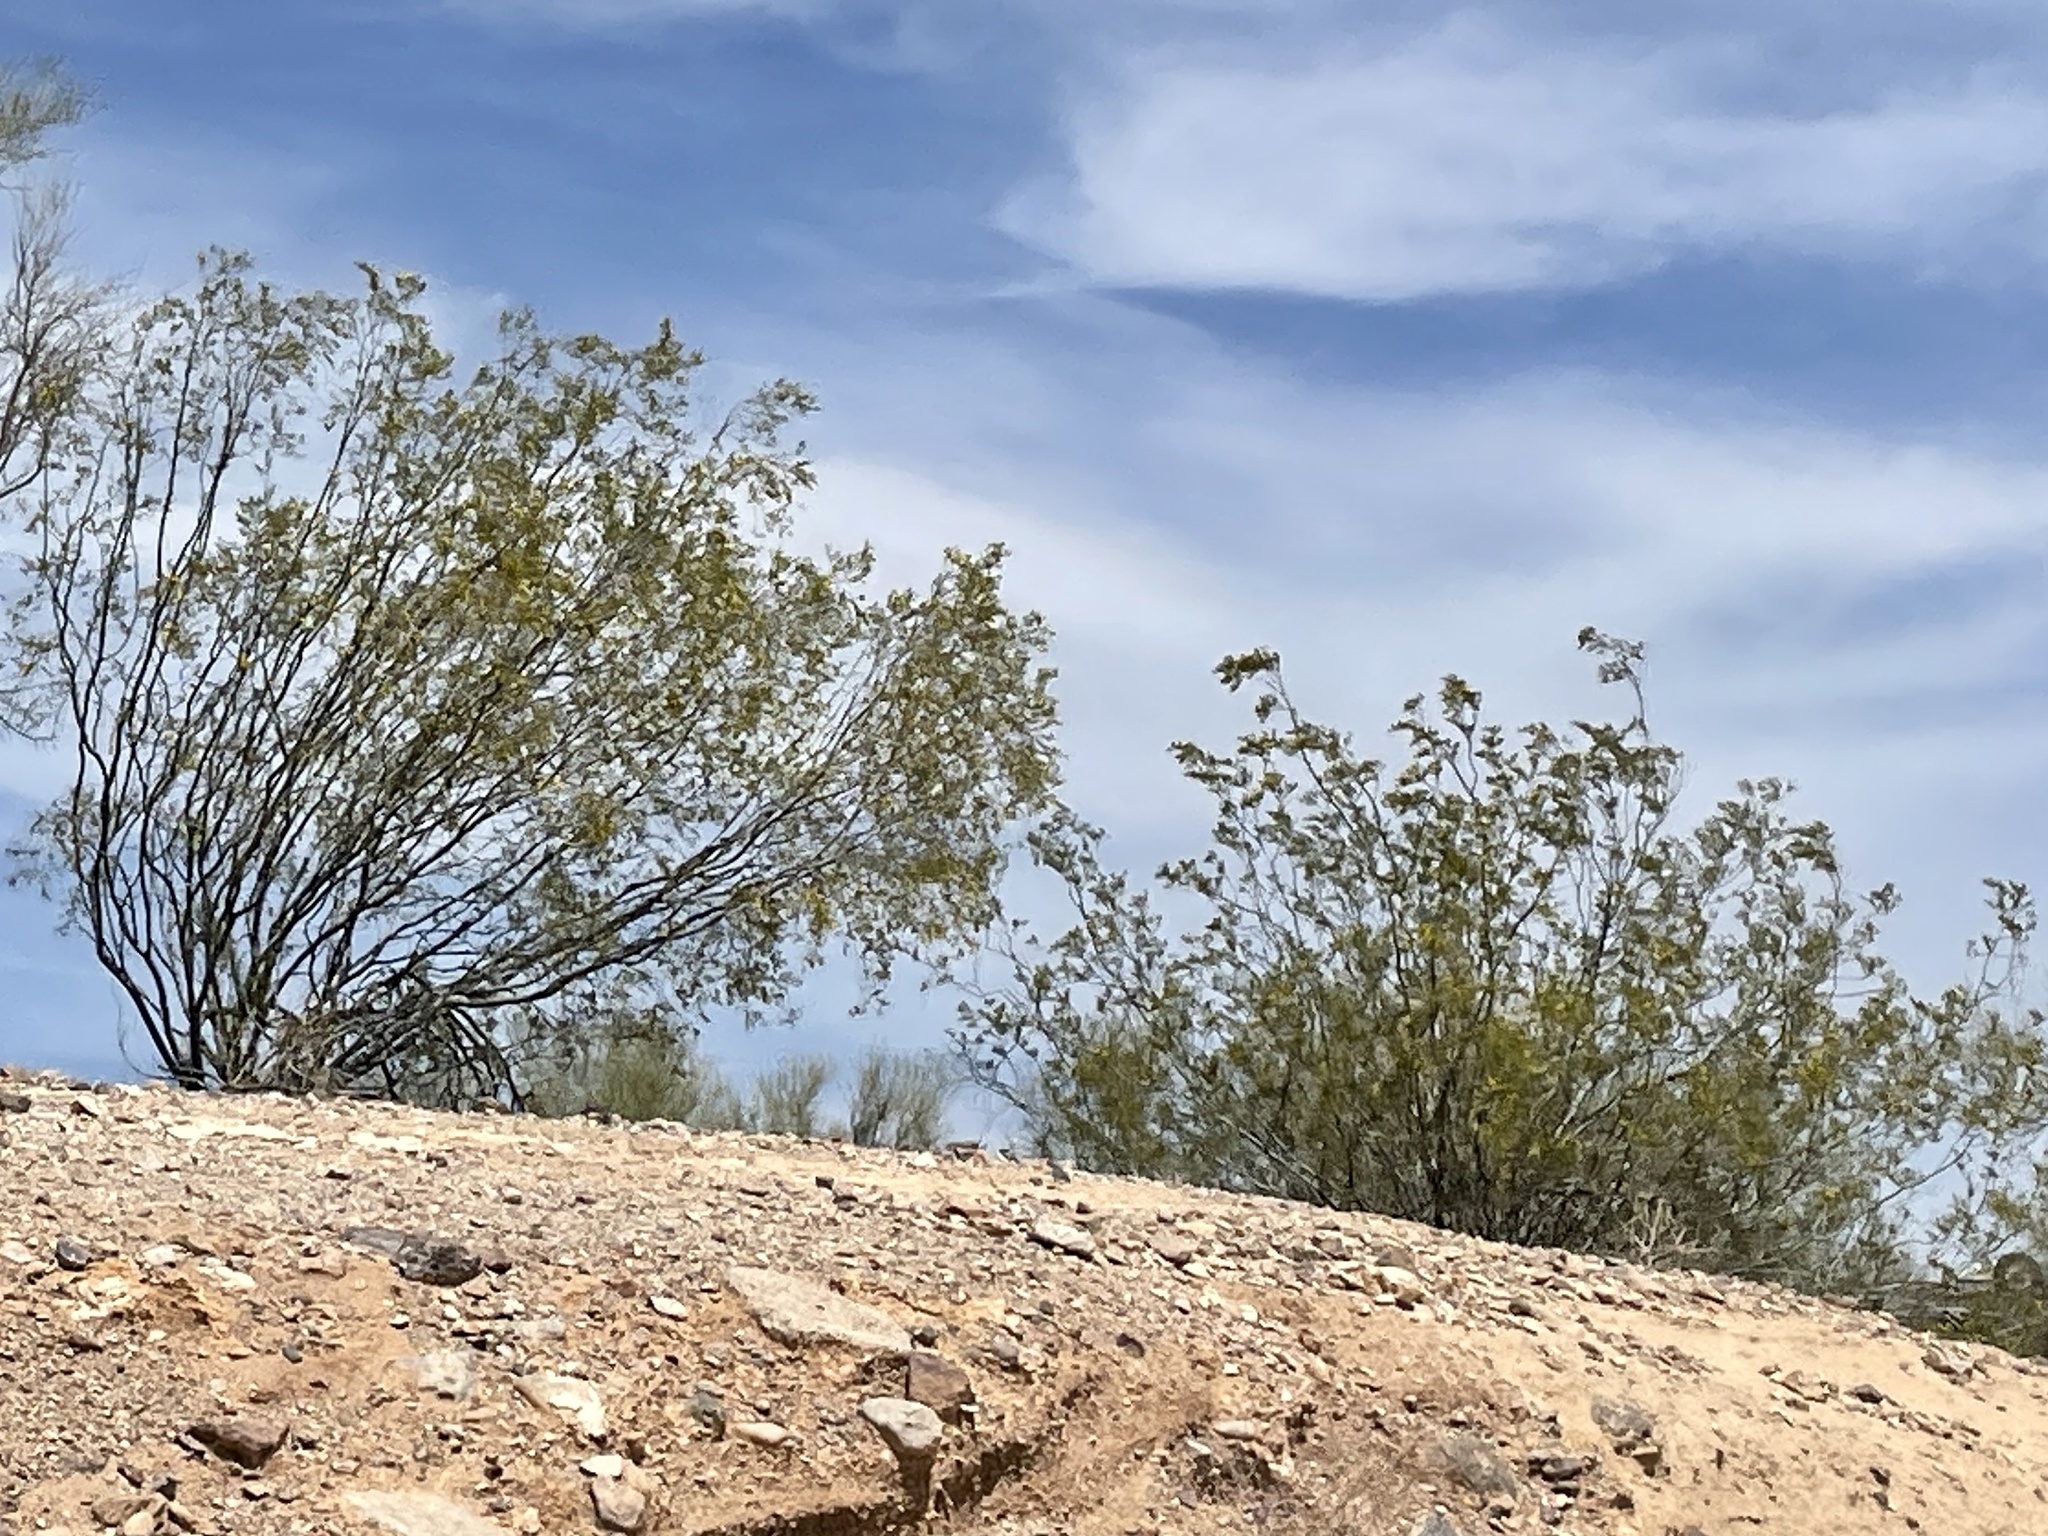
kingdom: Plantae
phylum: Tracheophyta
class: Magnoliopsida
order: Zygophyllales
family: Zygophyllaceae
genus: Larrea
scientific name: Larrea tridentata
